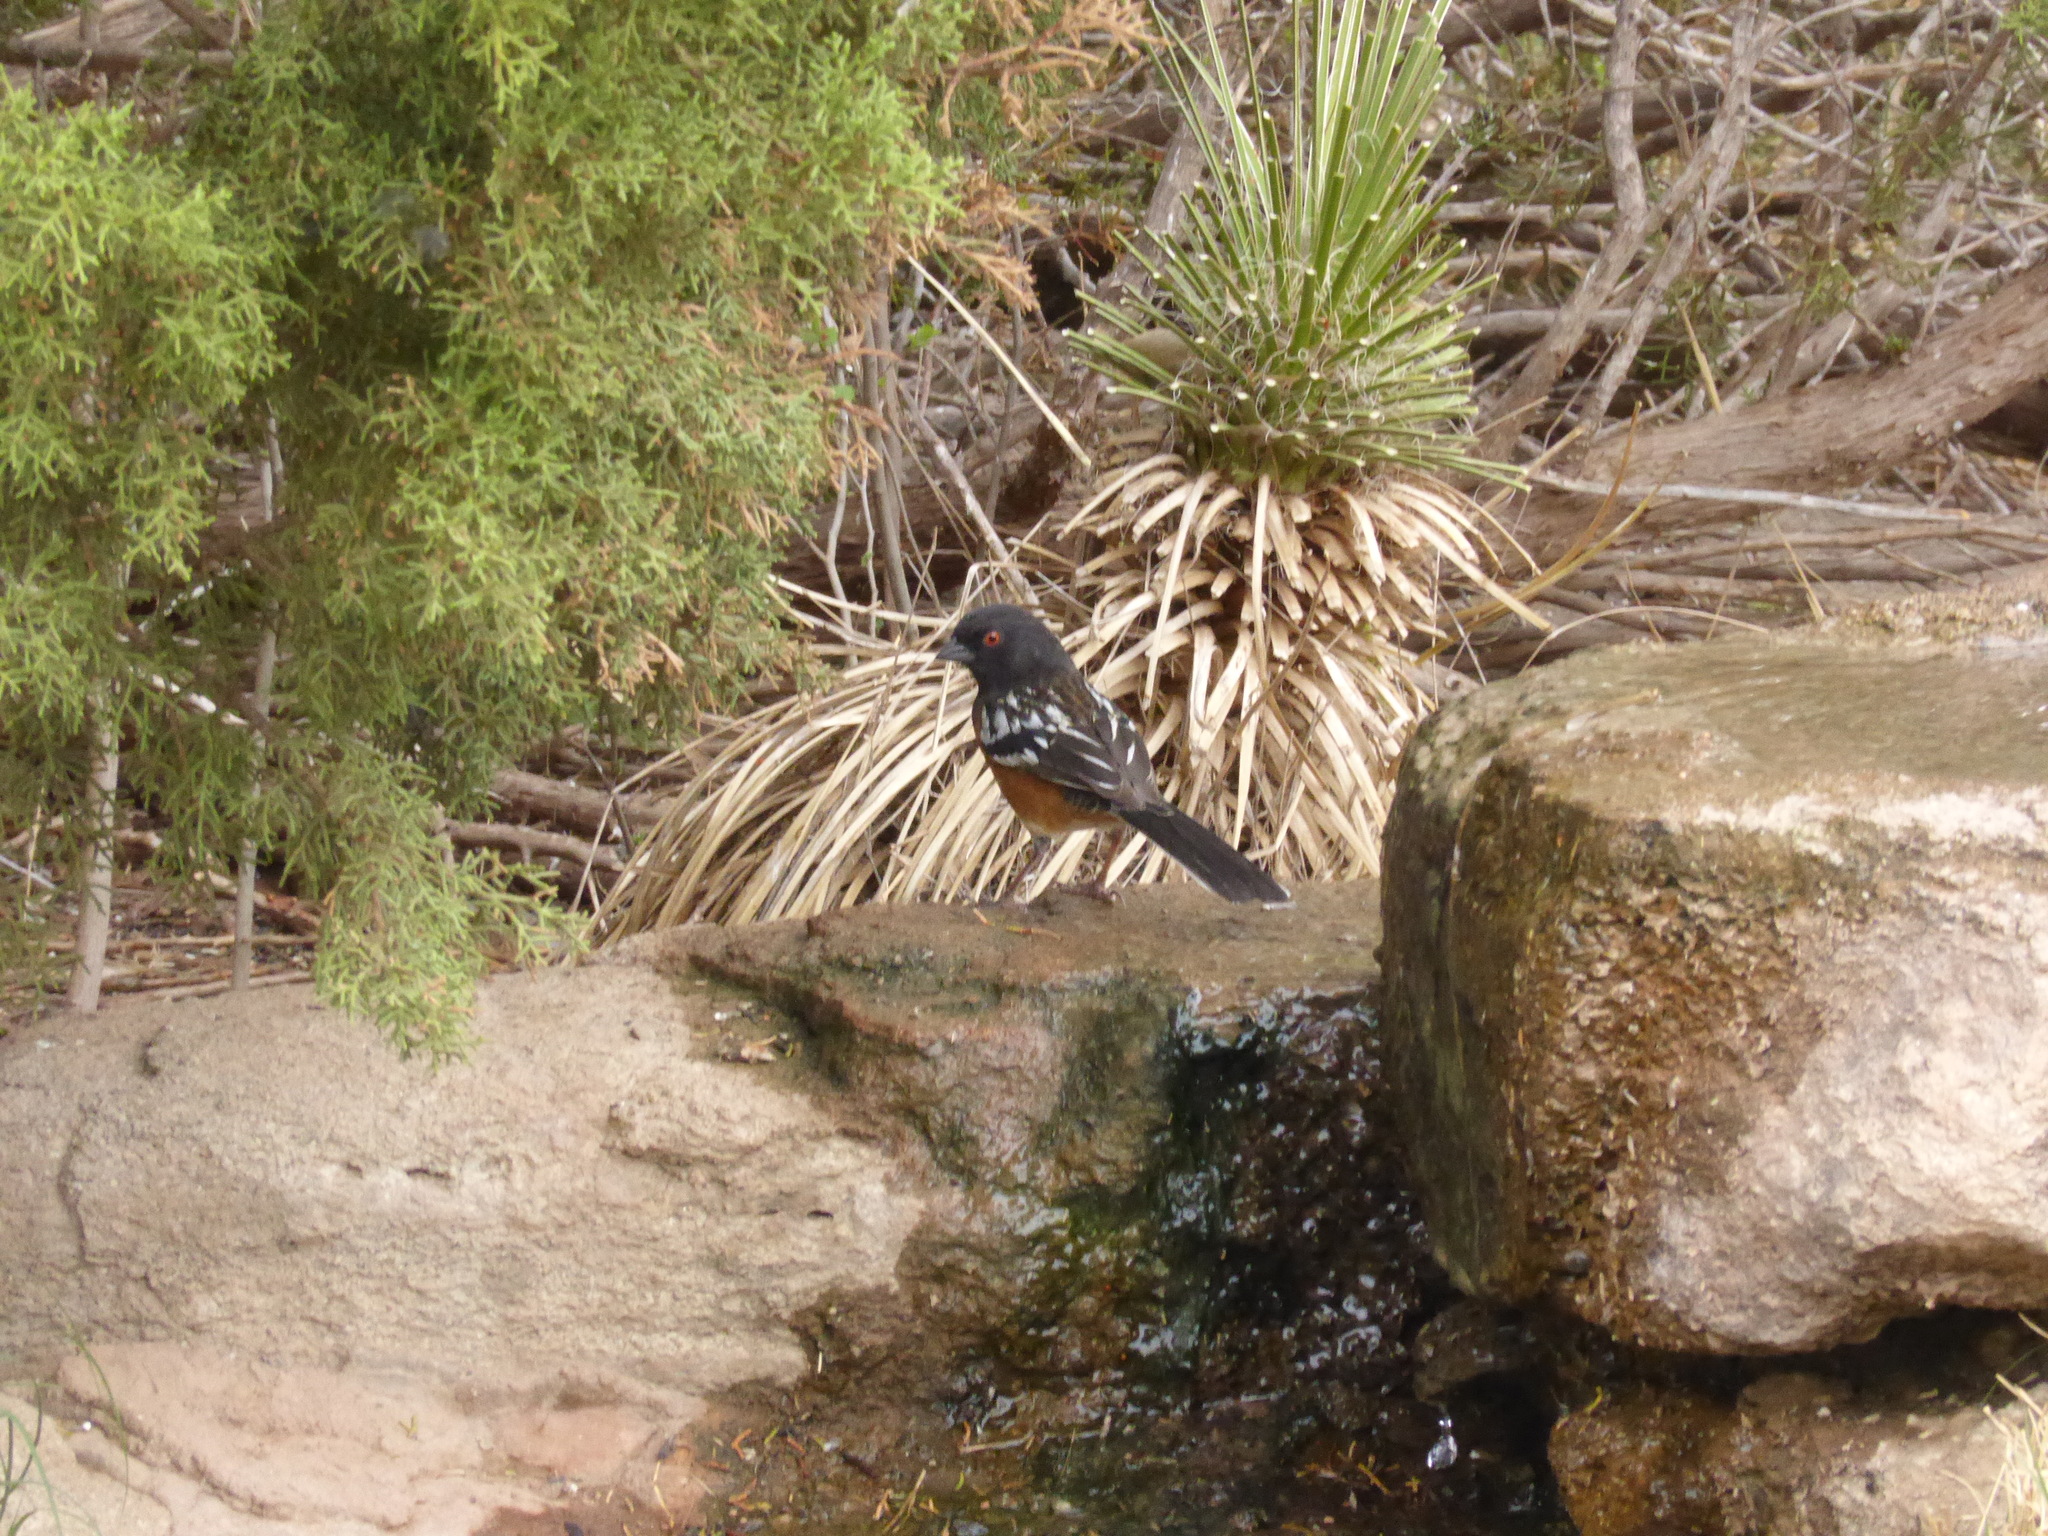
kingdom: Animalia
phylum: Chordata
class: Aves
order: Passeriformes
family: Passerellidae
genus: Pipilo
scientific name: Pipilo maculatus
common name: Spotted towhee
